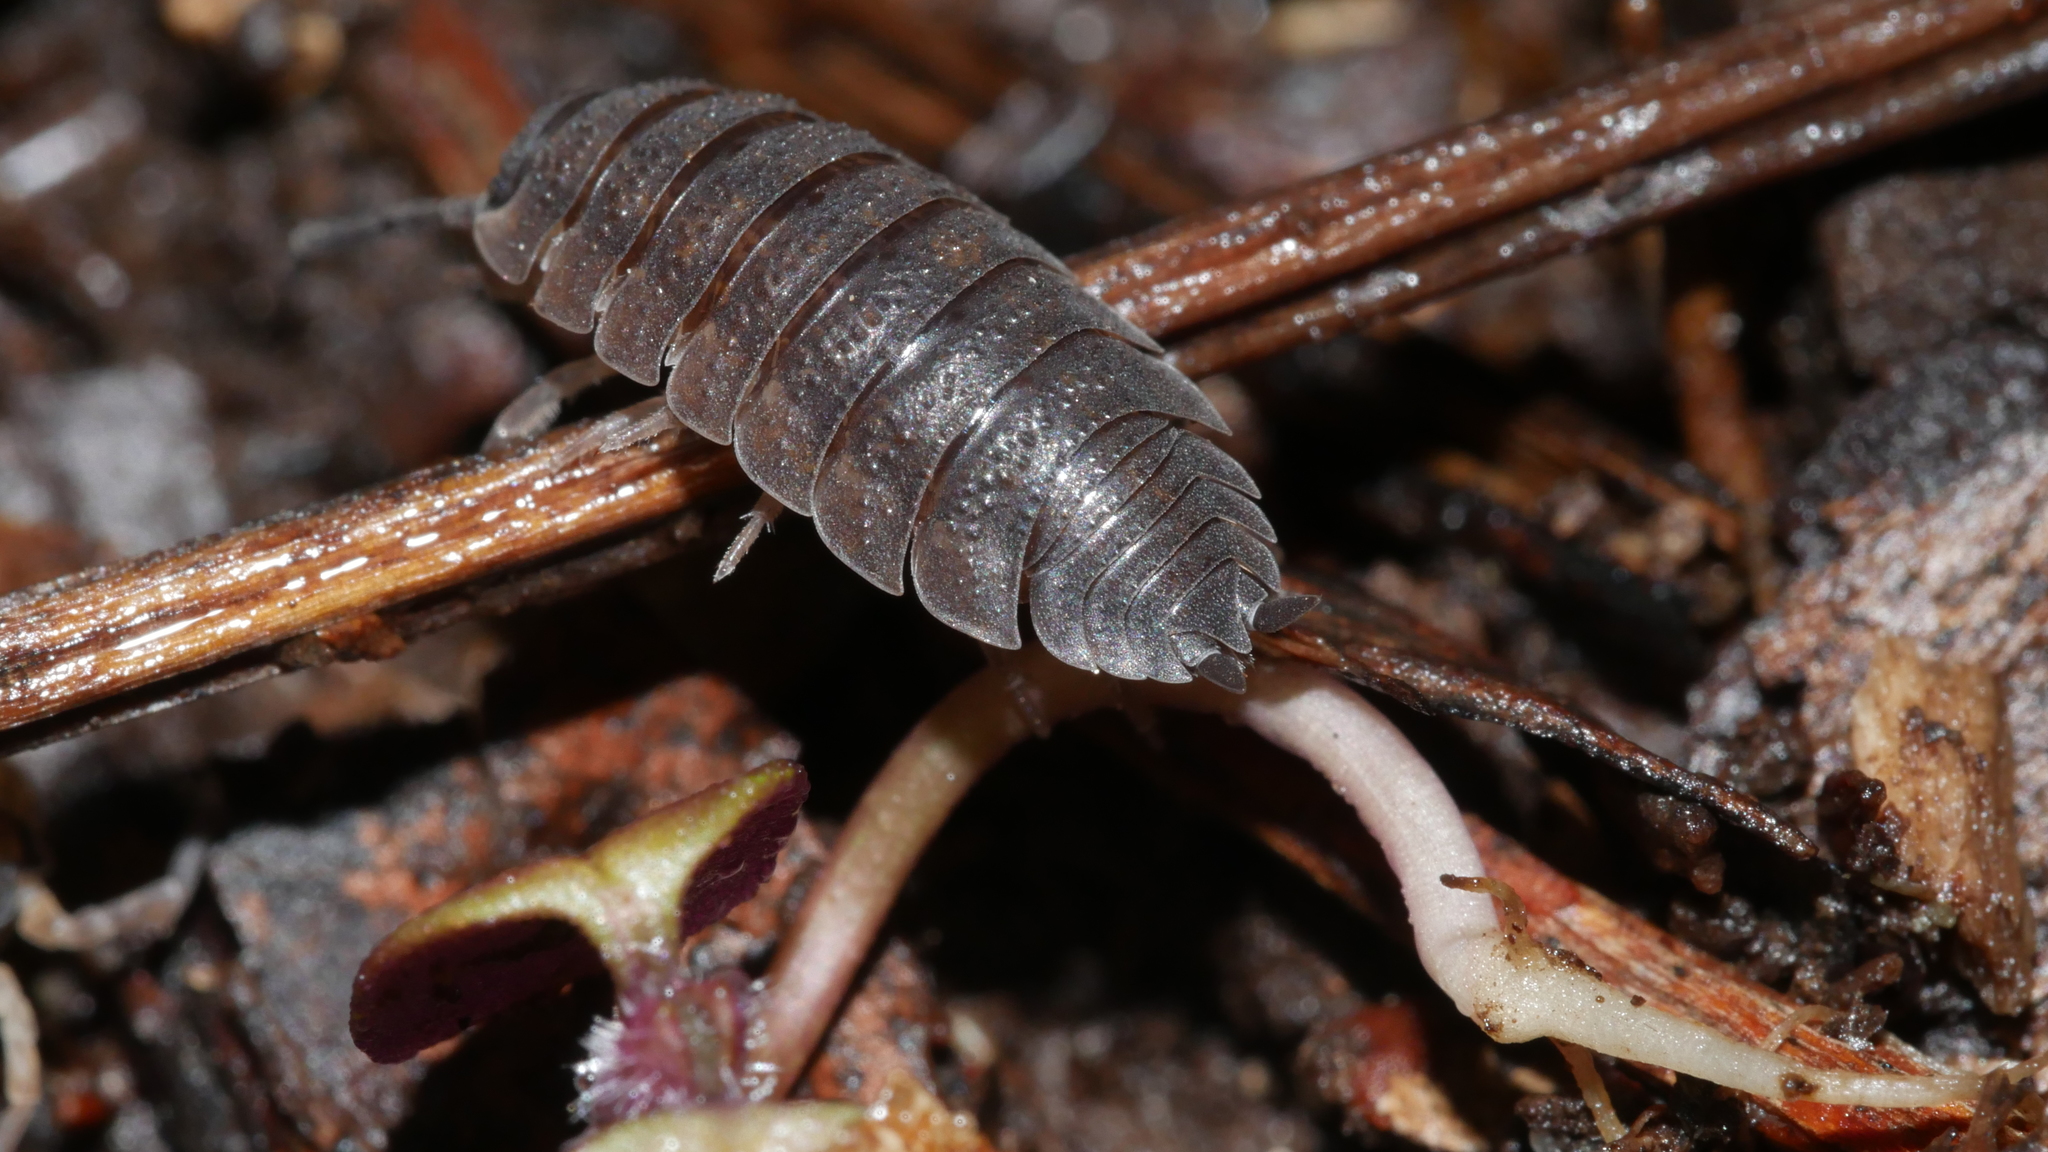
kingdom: Animalia
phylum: Arthropoda
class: Malacostraca
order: Isopoda
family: Porcellionidae
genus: Porcellio
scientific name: Porcellio scaber
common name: Common rough woodlouse
